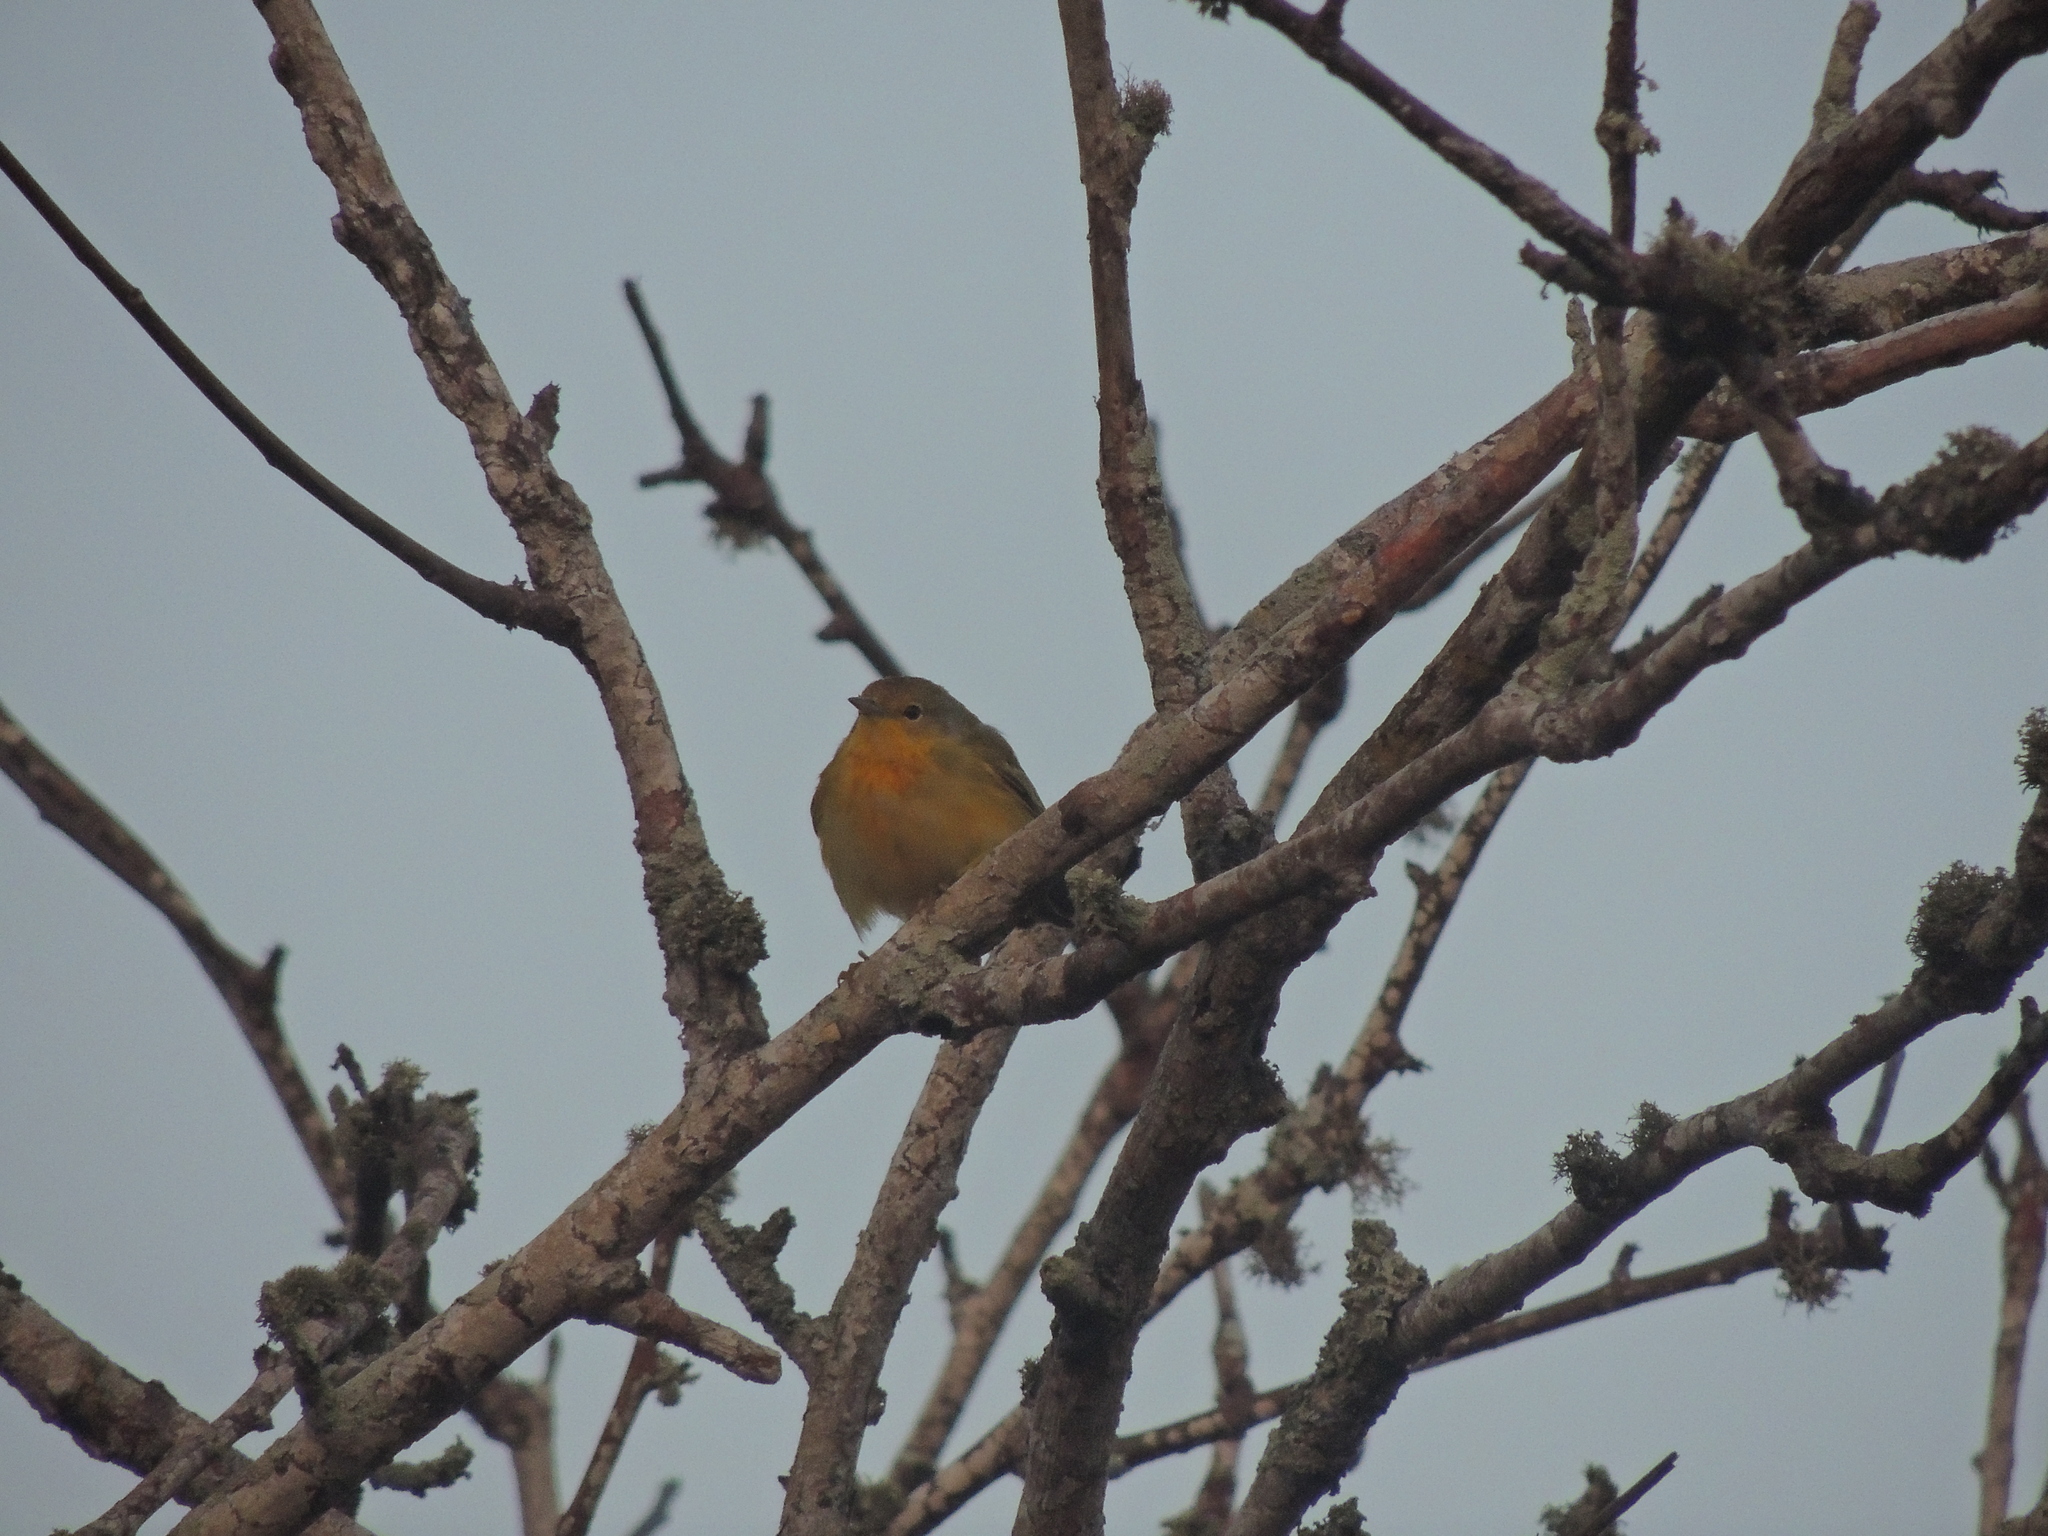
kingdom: Animalia
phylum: Chordata
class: Aves
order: Passeriformes
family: Parulidae
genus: Setophaga
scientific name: Setophaga petechia
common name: Yellow warbler
